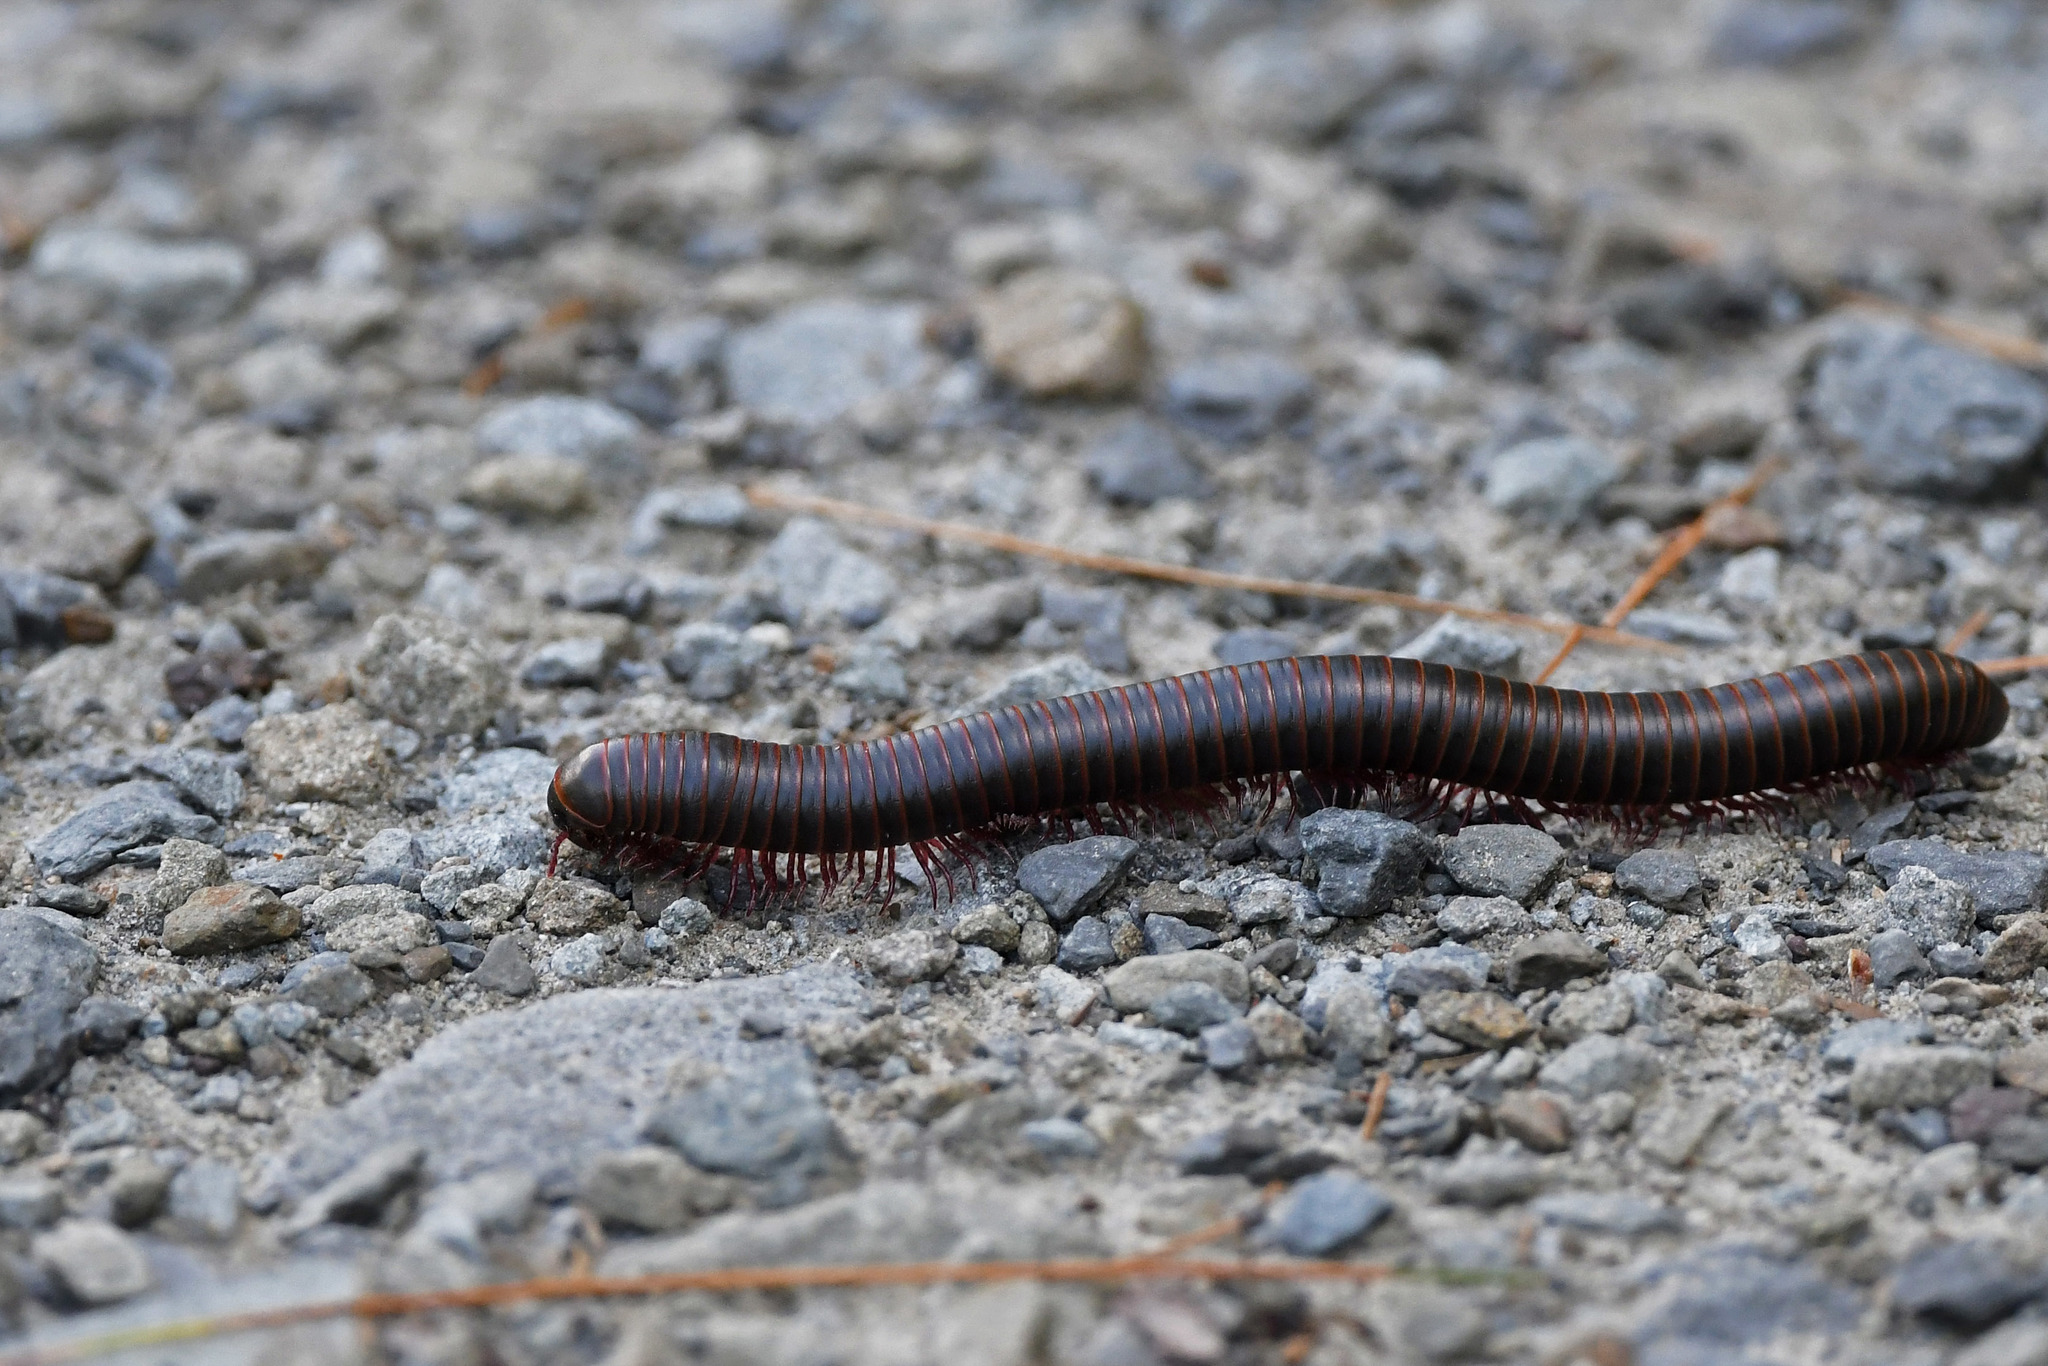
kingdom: Animalia
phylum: Arthropoda
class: Diplopoda
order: Spirobolida
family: Spirobolidae
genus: Narceus
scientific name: Narceus
